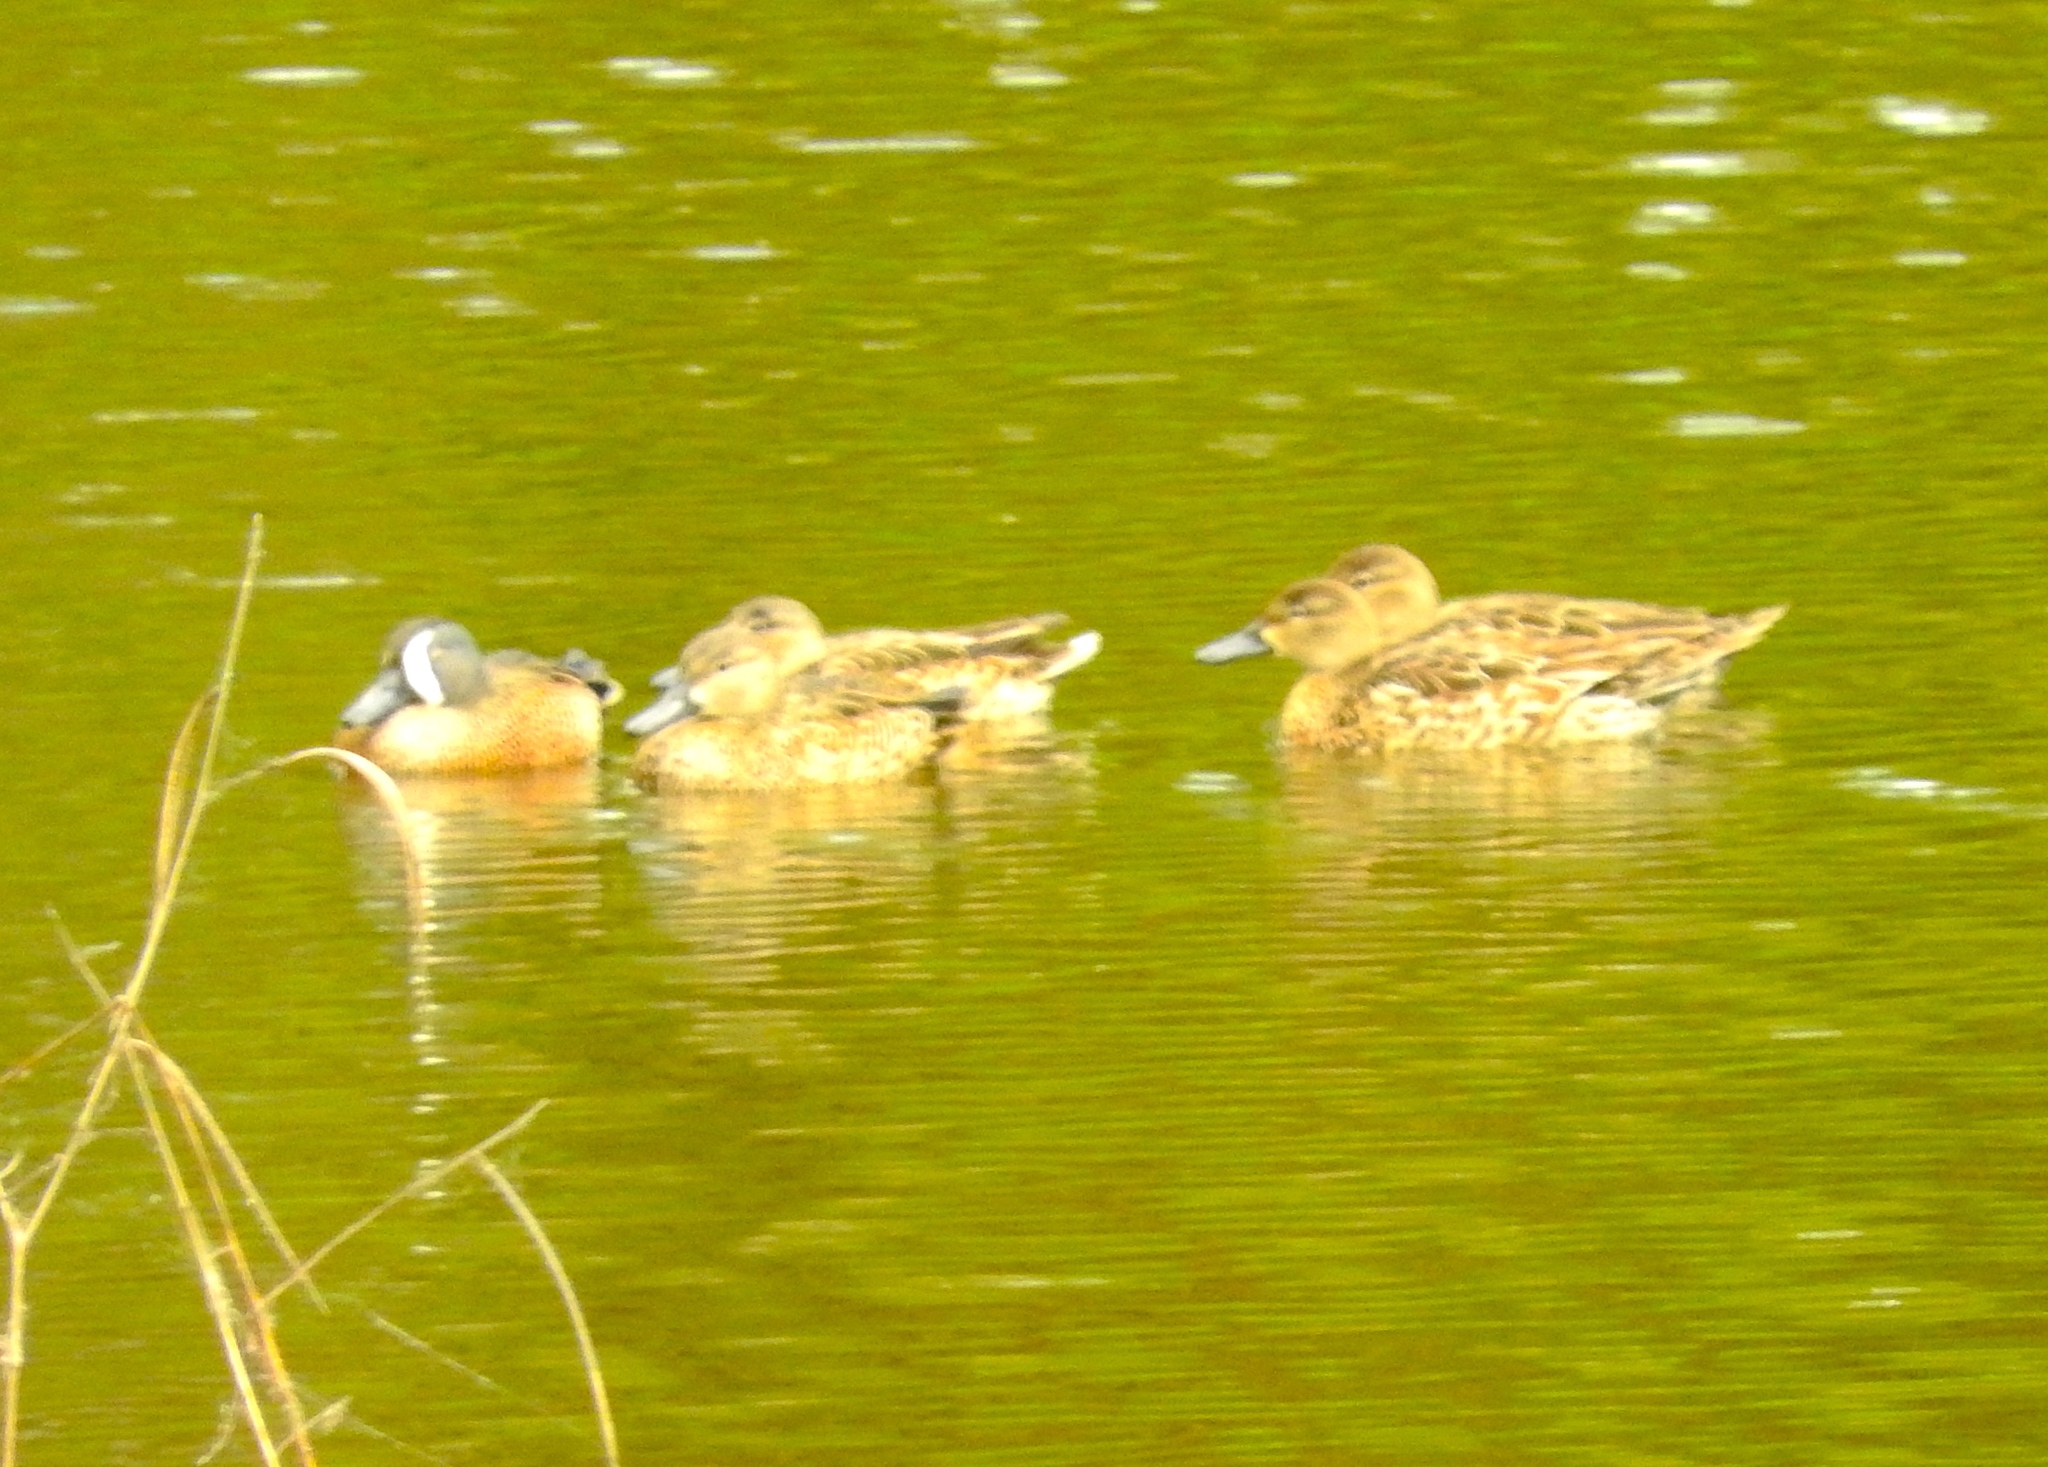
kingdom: Animalia
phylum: Chordata
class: Aves
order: Anseriformes
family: Anatidae
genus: Spatula
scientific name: Spatula discors
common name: Blue-winged teal
